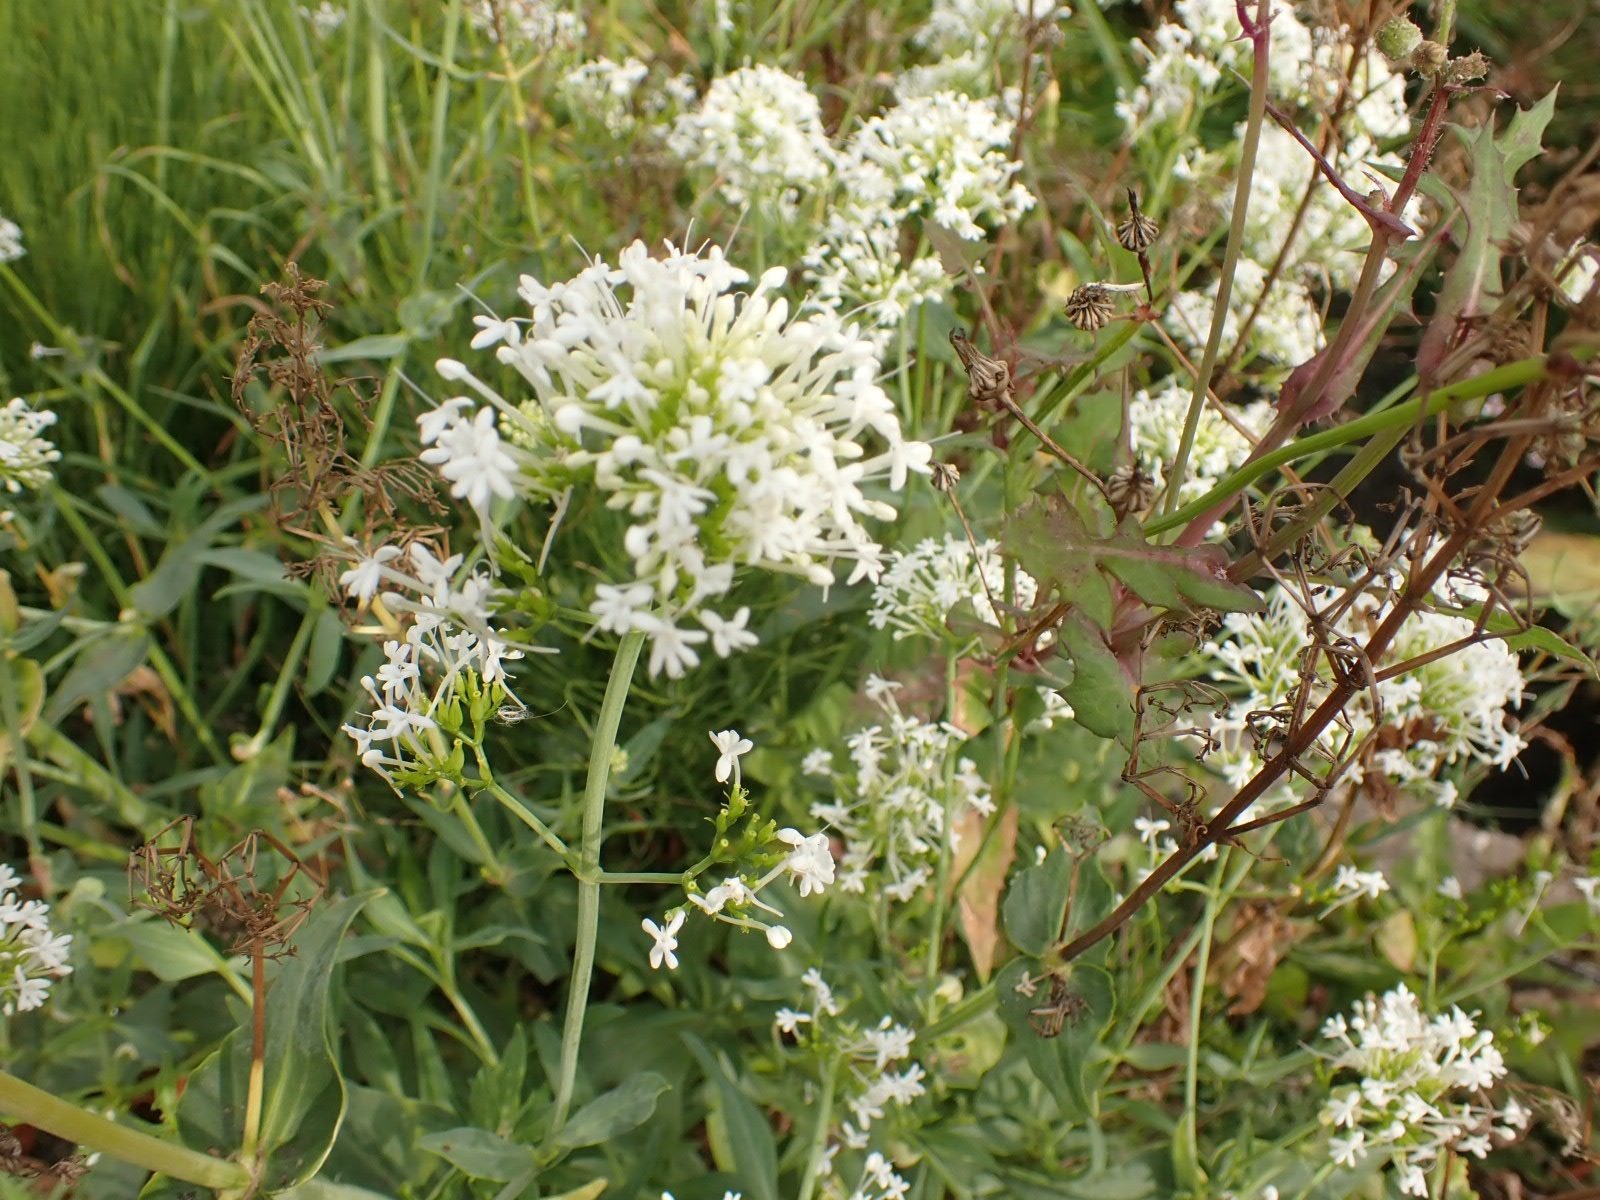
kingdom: Plantae
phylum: Tracheophyta
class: Magnoliopsida
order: Dipsacales
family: Caprifoliaceae
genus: Centranthus
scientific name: Centranthus ruber
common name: Red valerian
